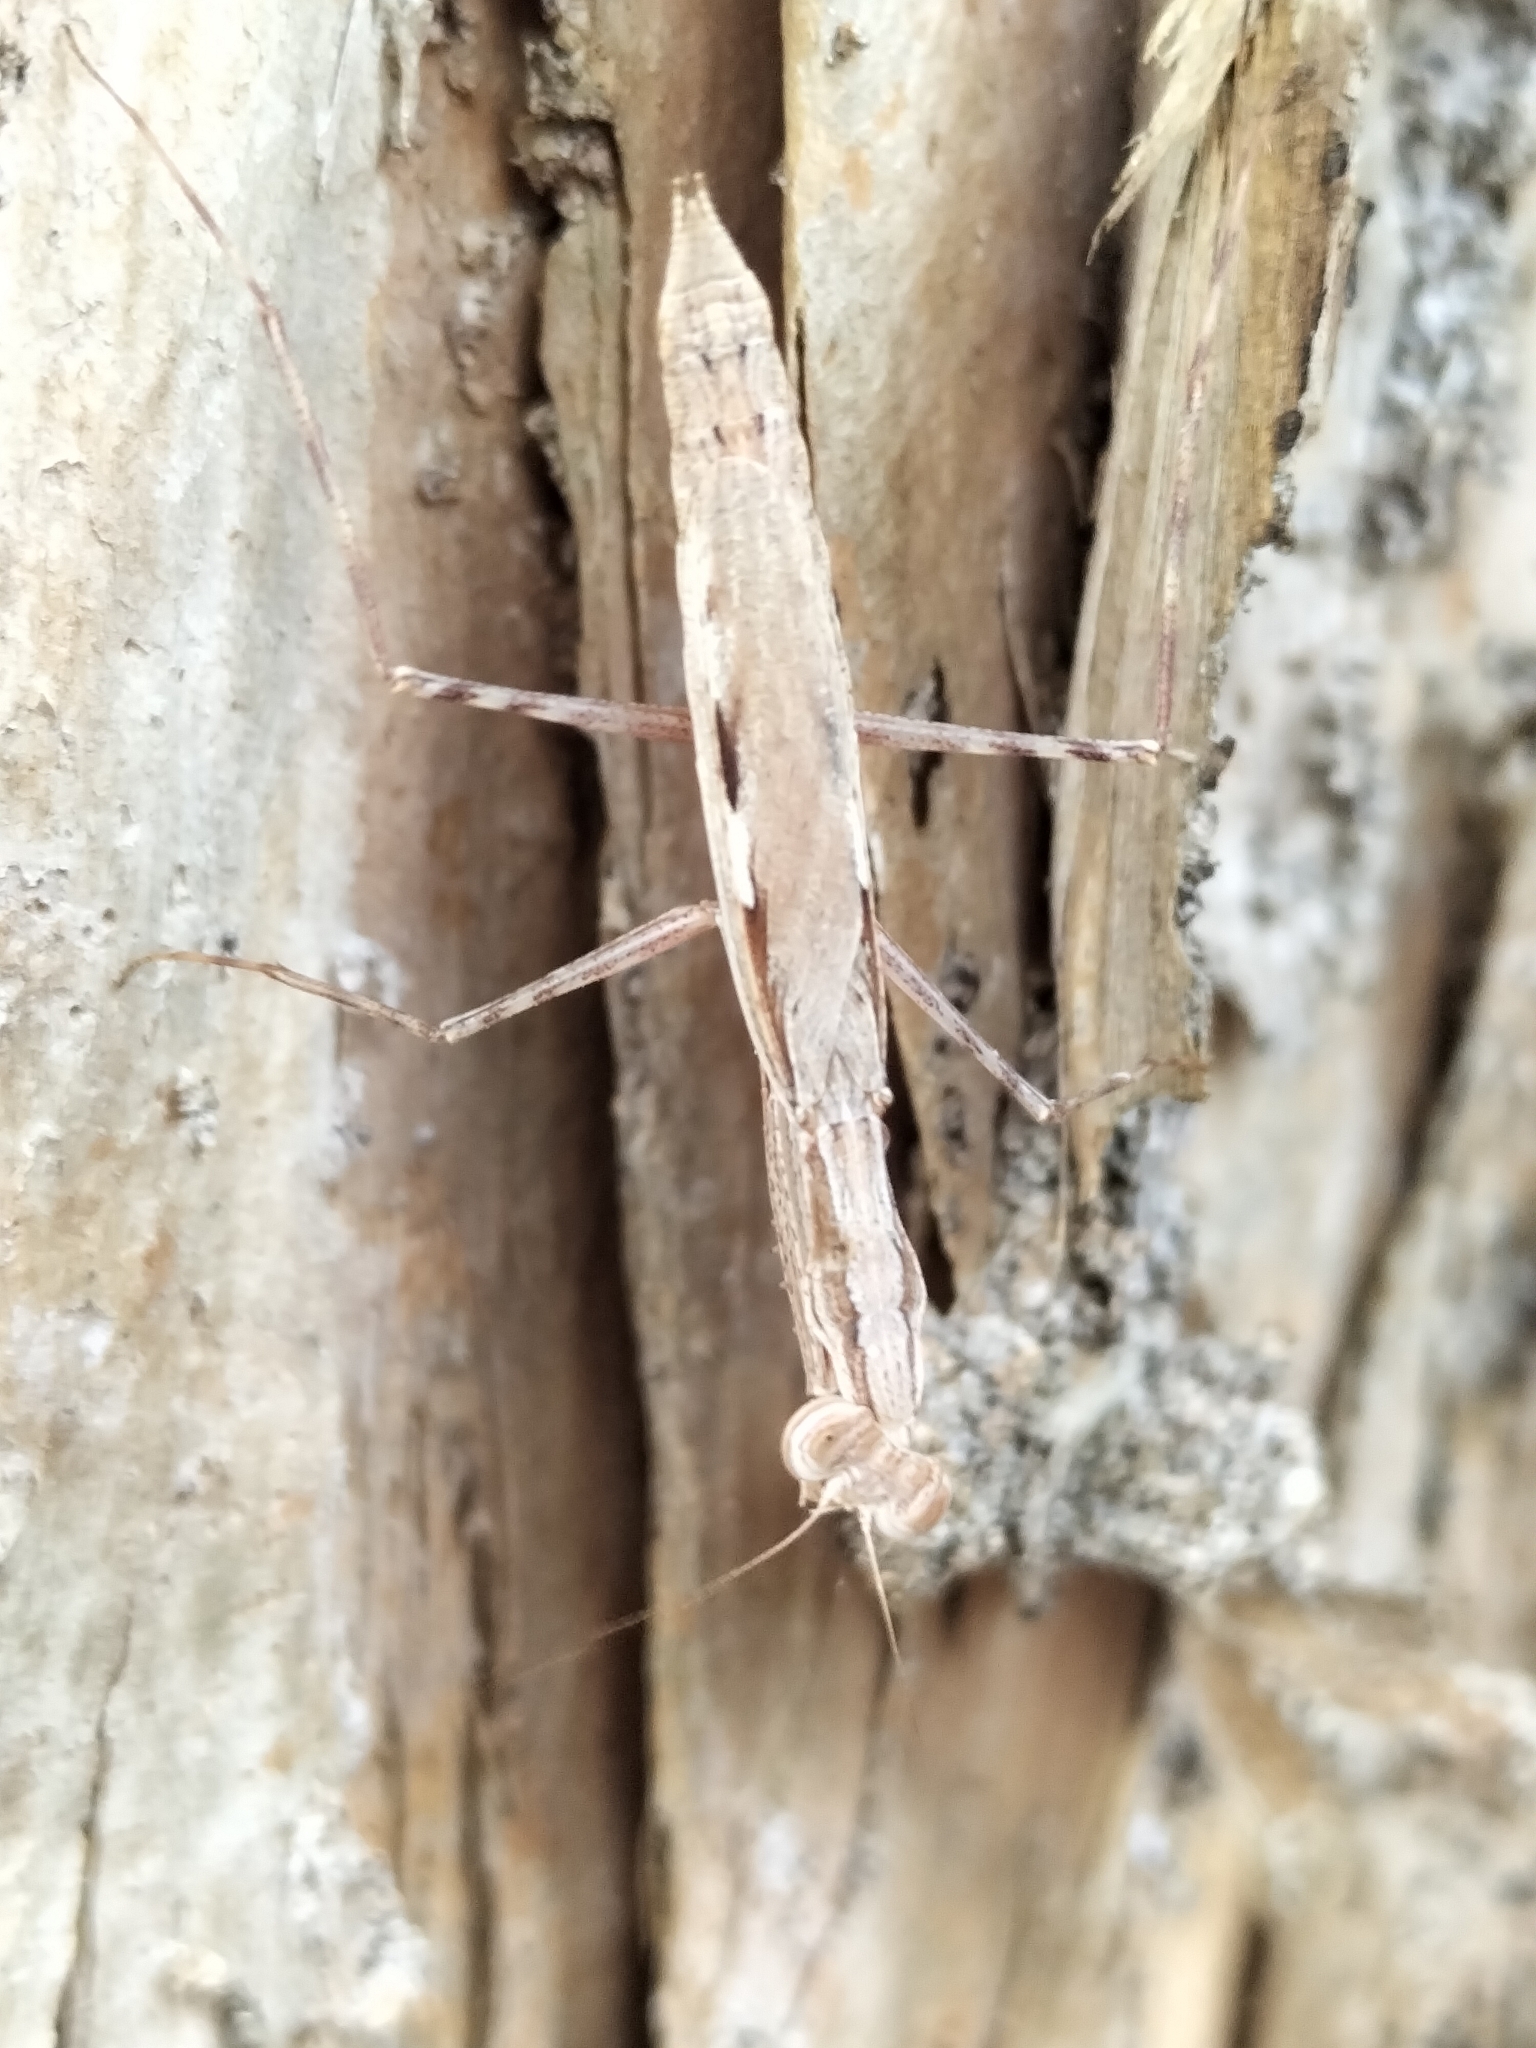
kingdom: Animalia
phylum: Arthropoda
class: Insecta
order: Mantodea
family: Nanomantidae
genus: Ima
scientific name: Ima fusca
